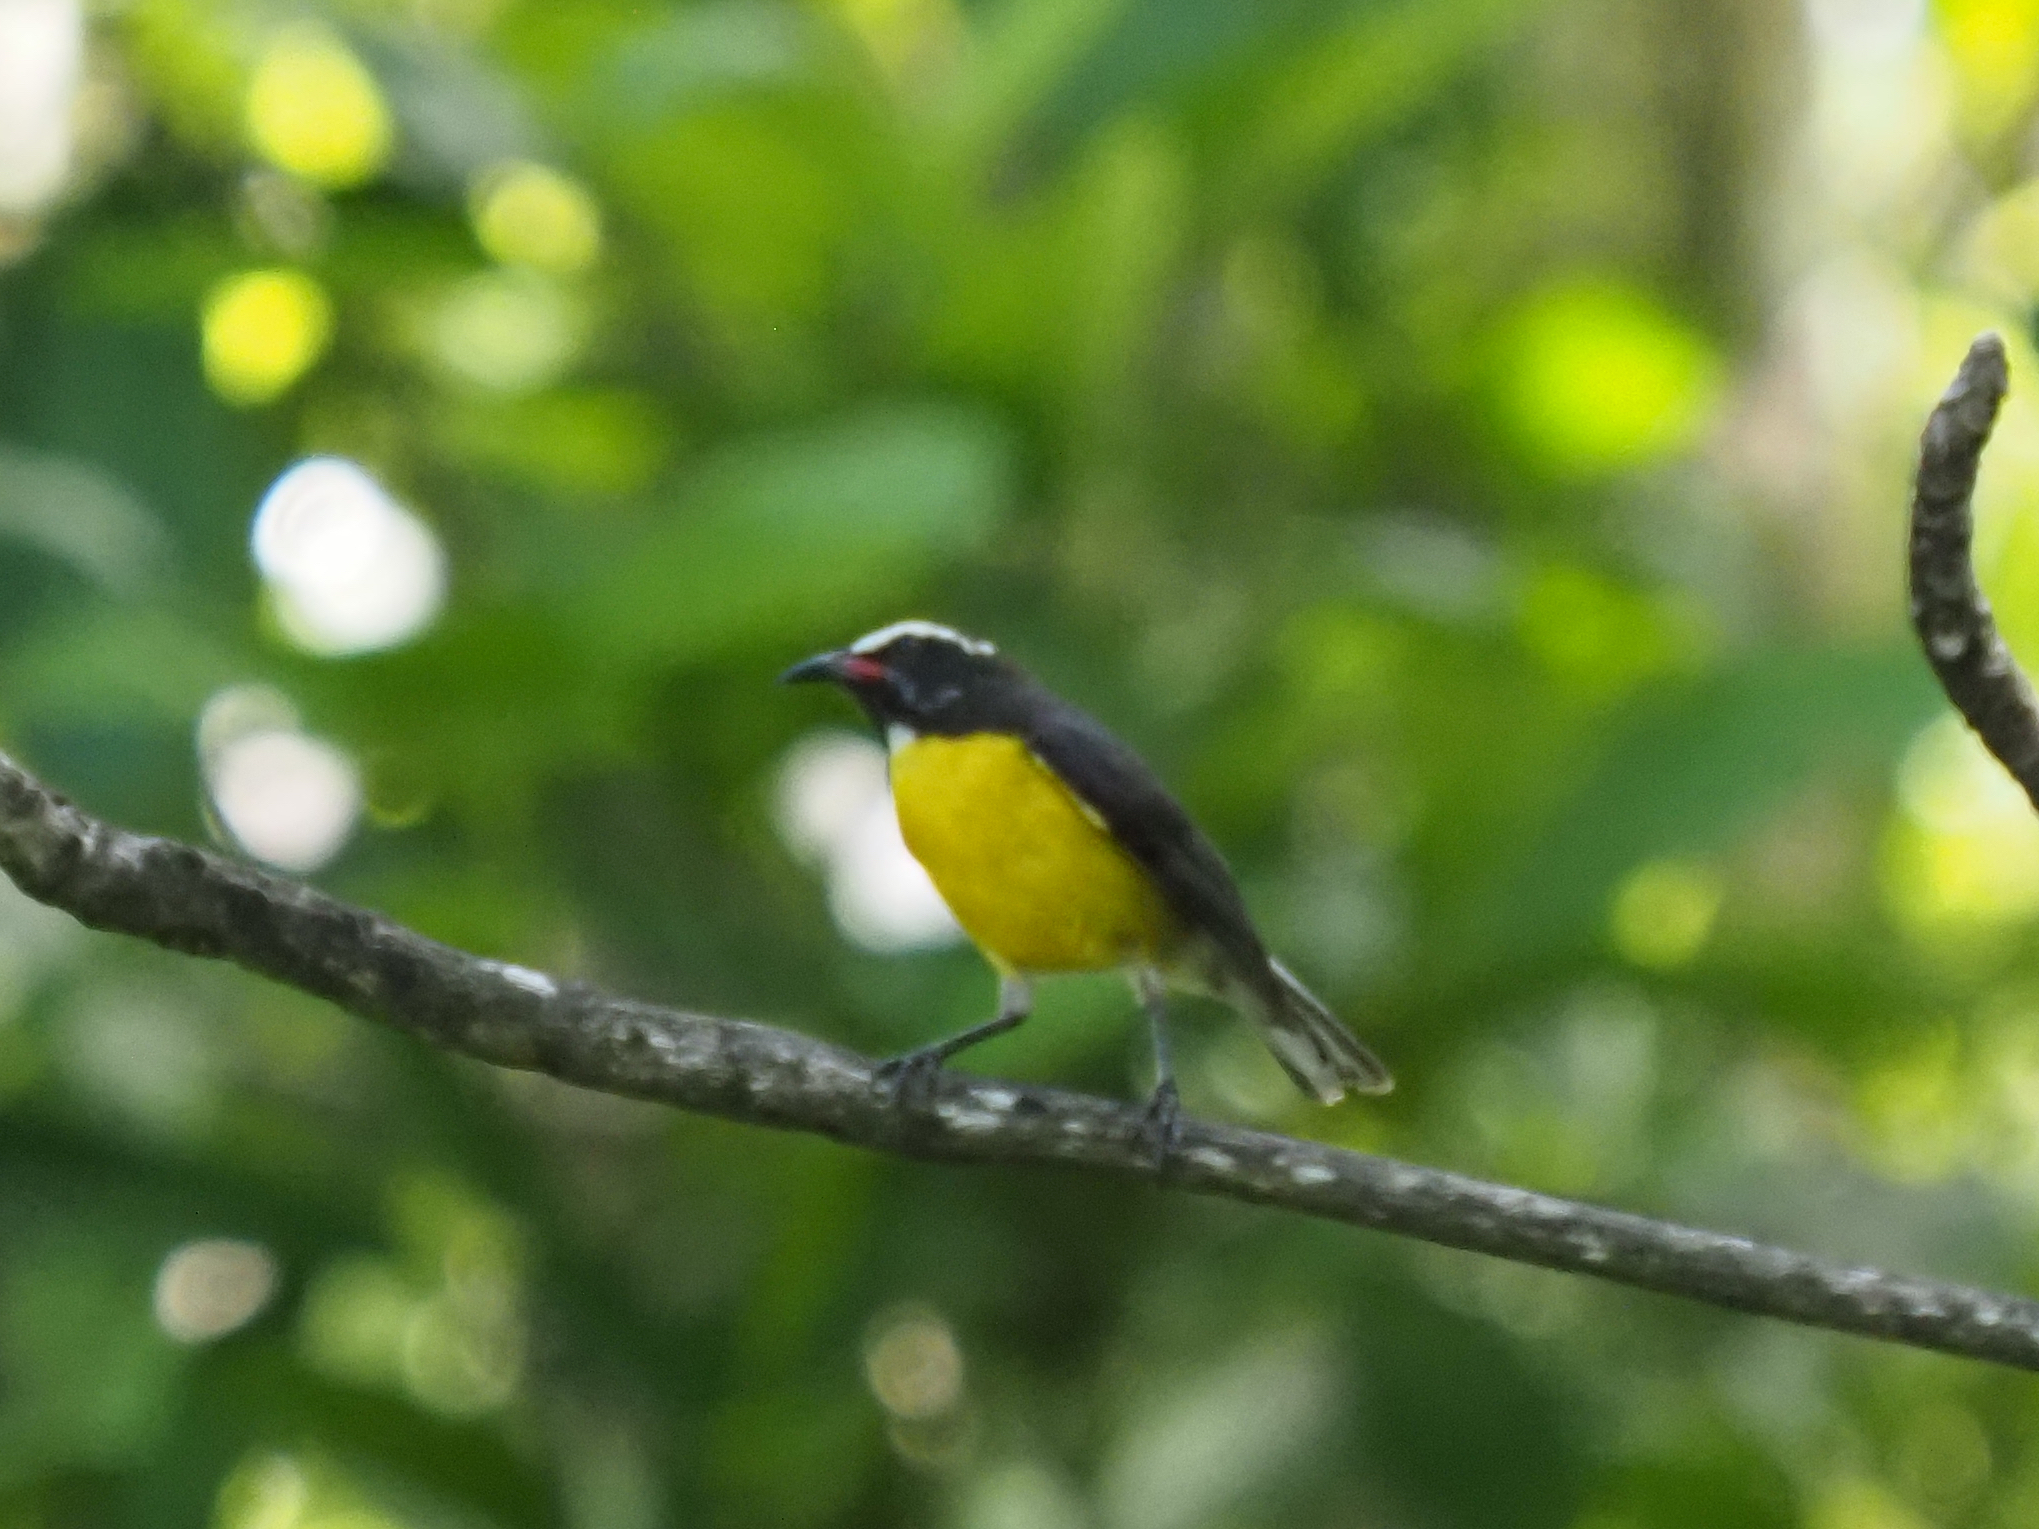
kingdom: Animalia
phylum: Chordata
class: Aves
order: Passeriformes
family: Thraupidae
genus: Coereba
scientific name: Coereba flaveola
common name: Bananaquit
